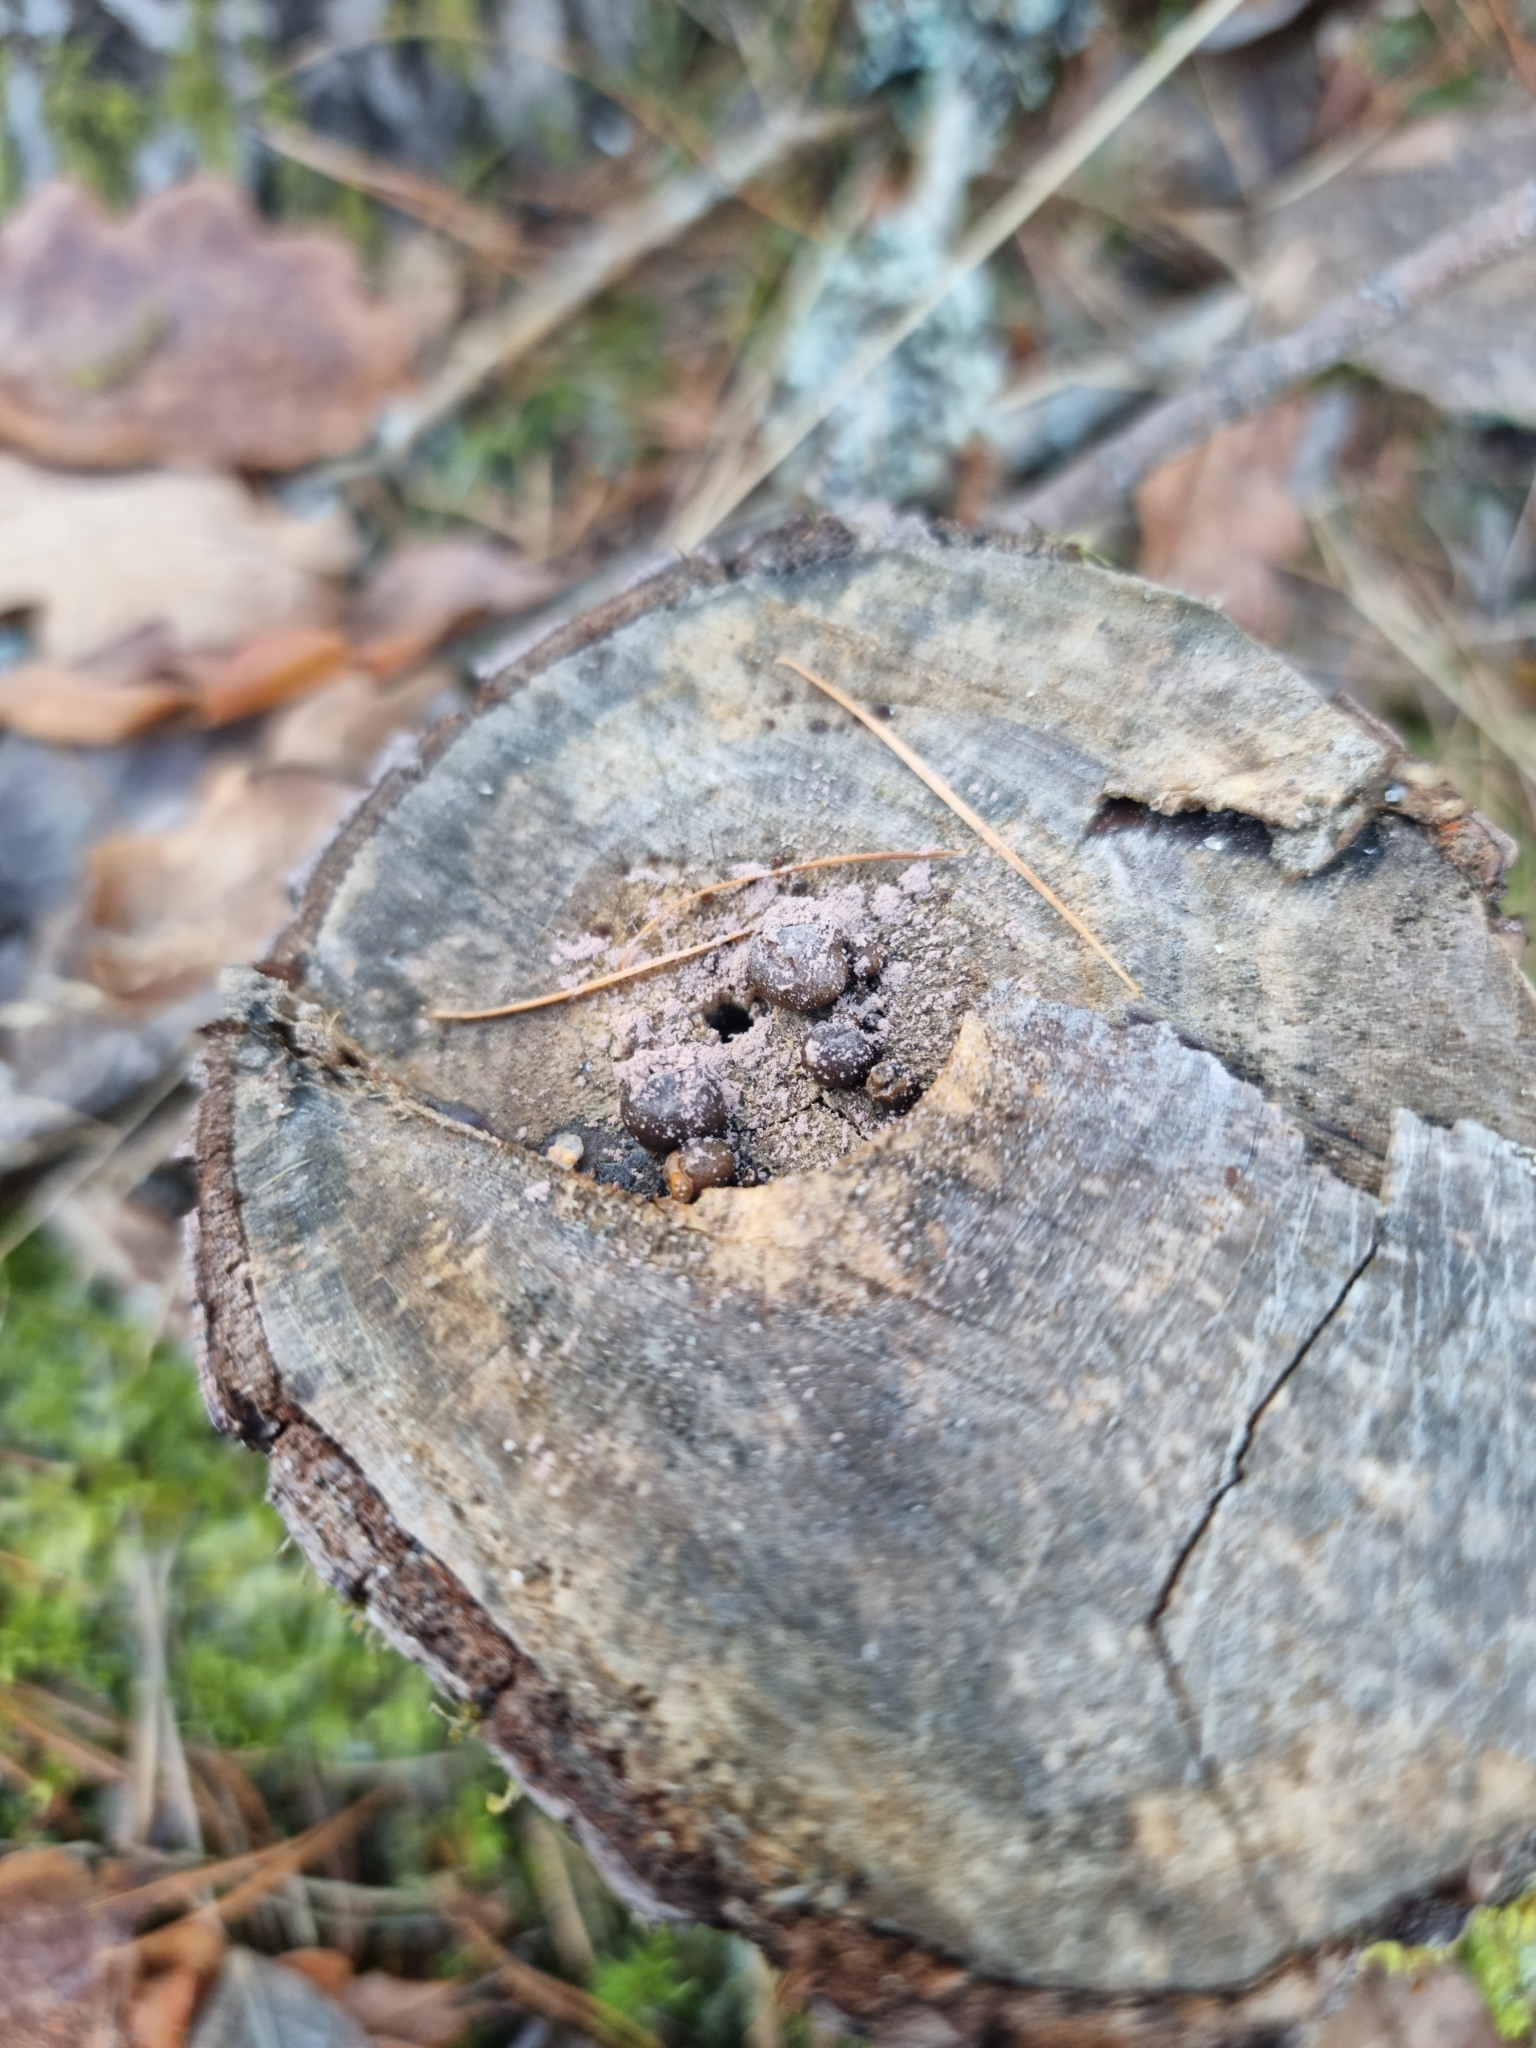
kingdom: Protozoa
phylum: Mycetozoa
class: Myxomycetes
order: Cribrariales
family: Tubiferaceae
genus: Lycogala
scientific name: Lycogala epidendrum
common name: Wolf's milk
